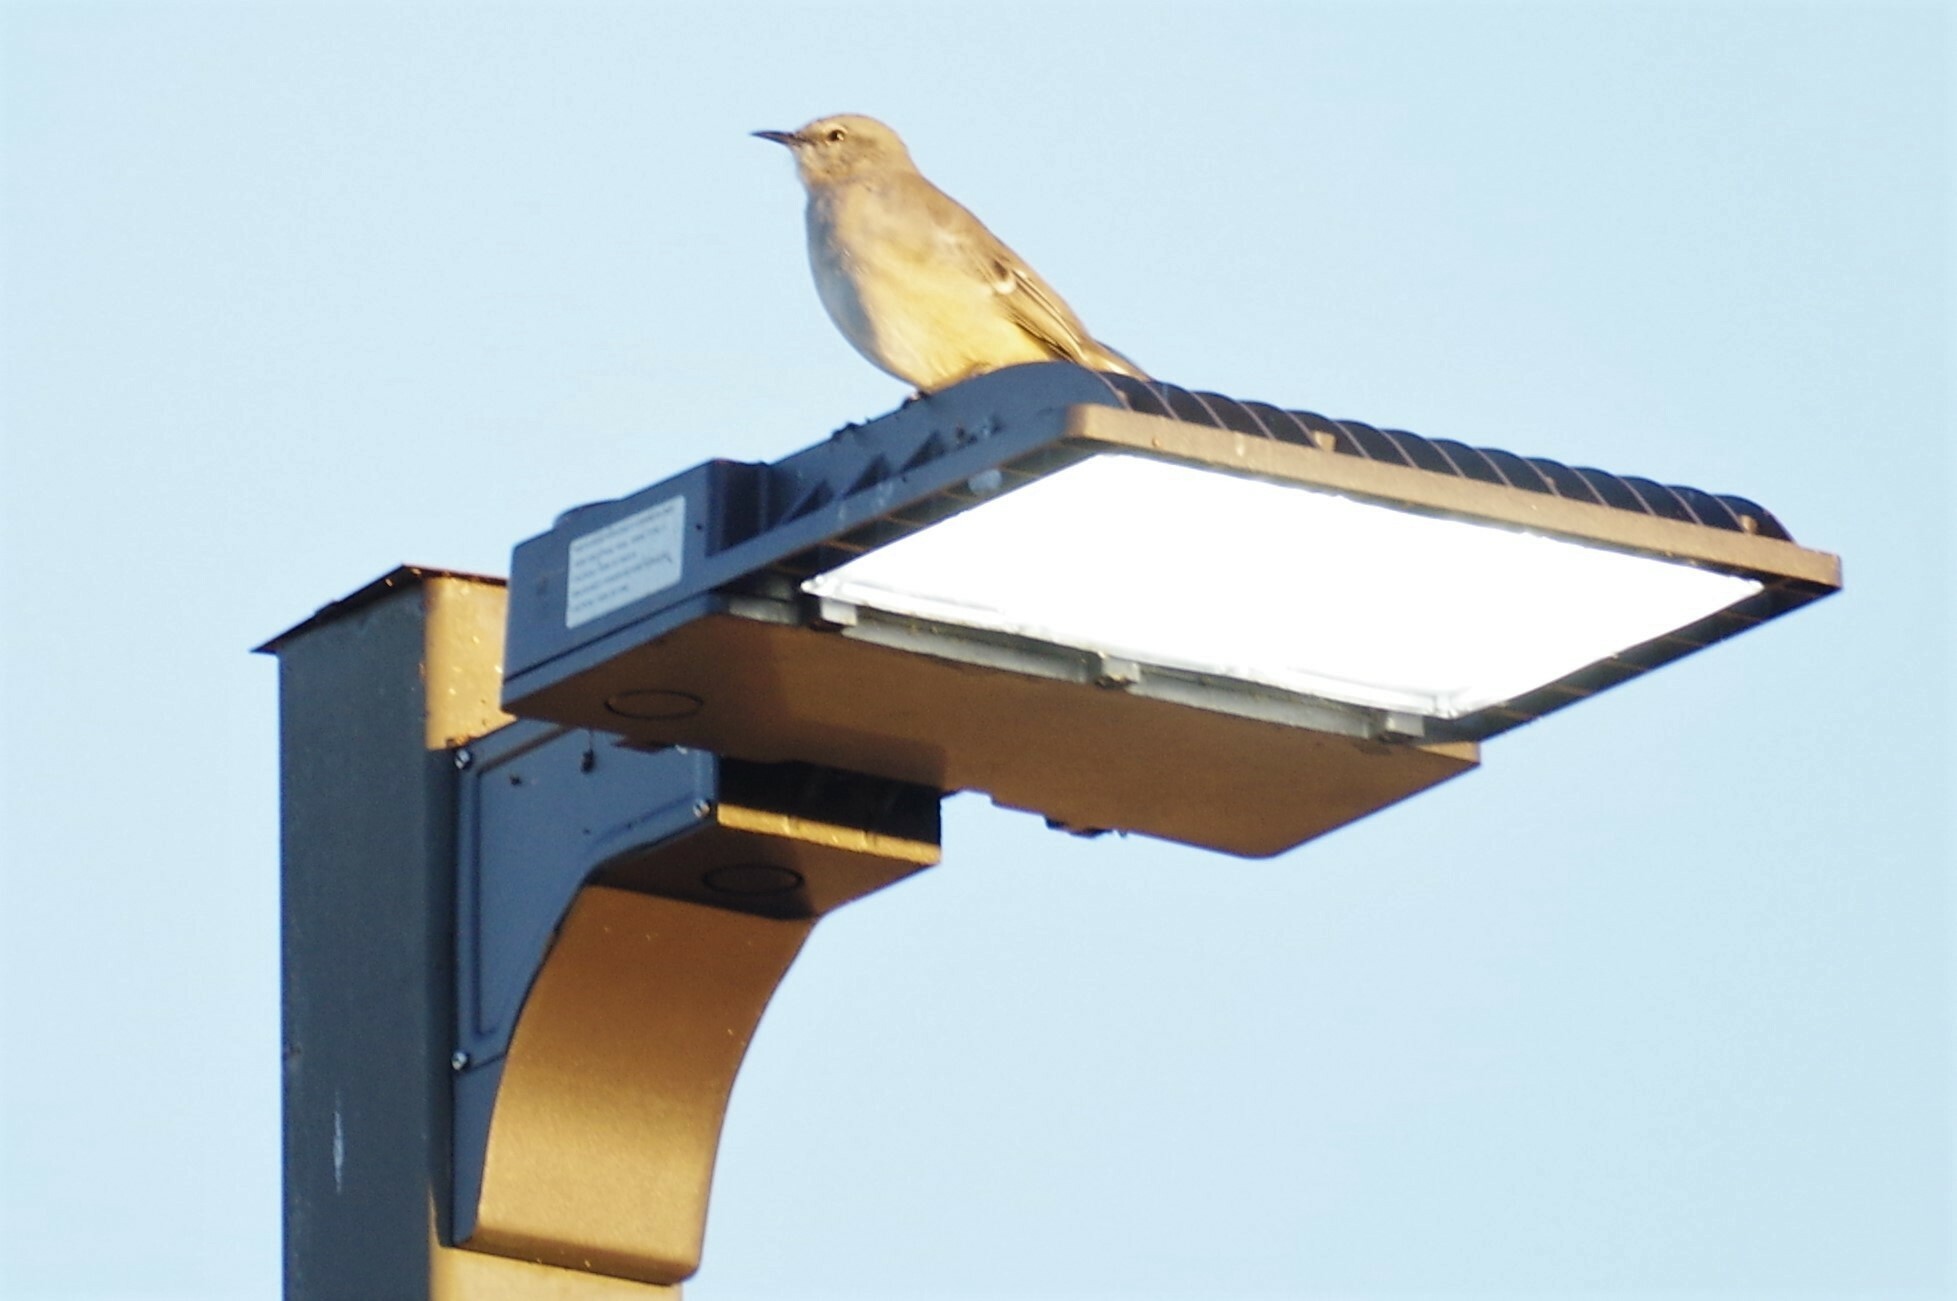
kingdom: Animalia
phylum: Chordata
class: Aves
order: Passeriformes
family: Mimidae
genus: Mimus
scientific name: Mimus polyglottos
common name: Northern mockingbird
